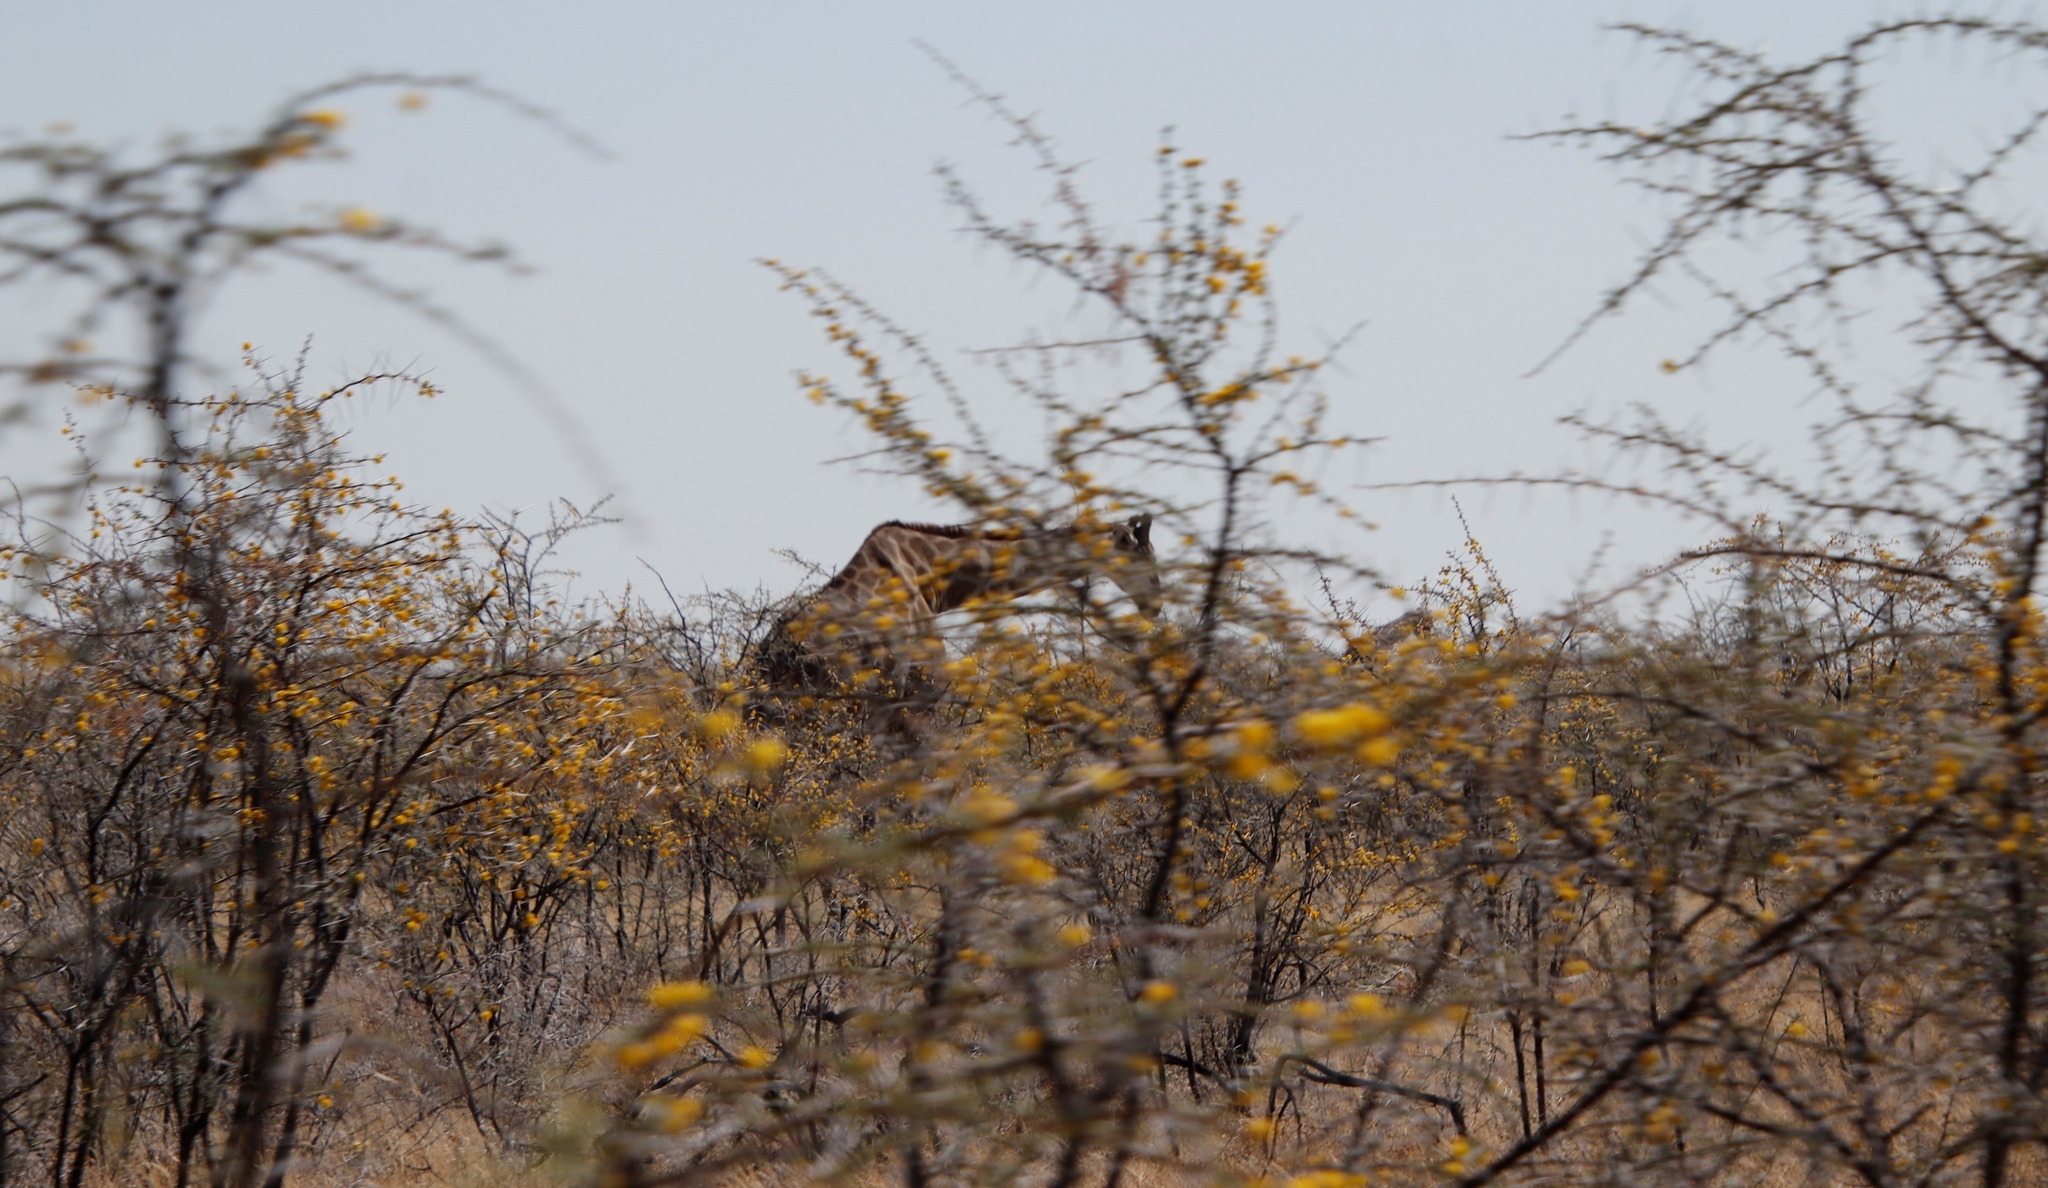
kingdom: Animalia
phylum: Chordata
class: Mammalia
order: Artiodactyla
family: Giraffidae
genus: Giraffa
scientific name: Giraffa giraffa
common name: Southern giraffe
